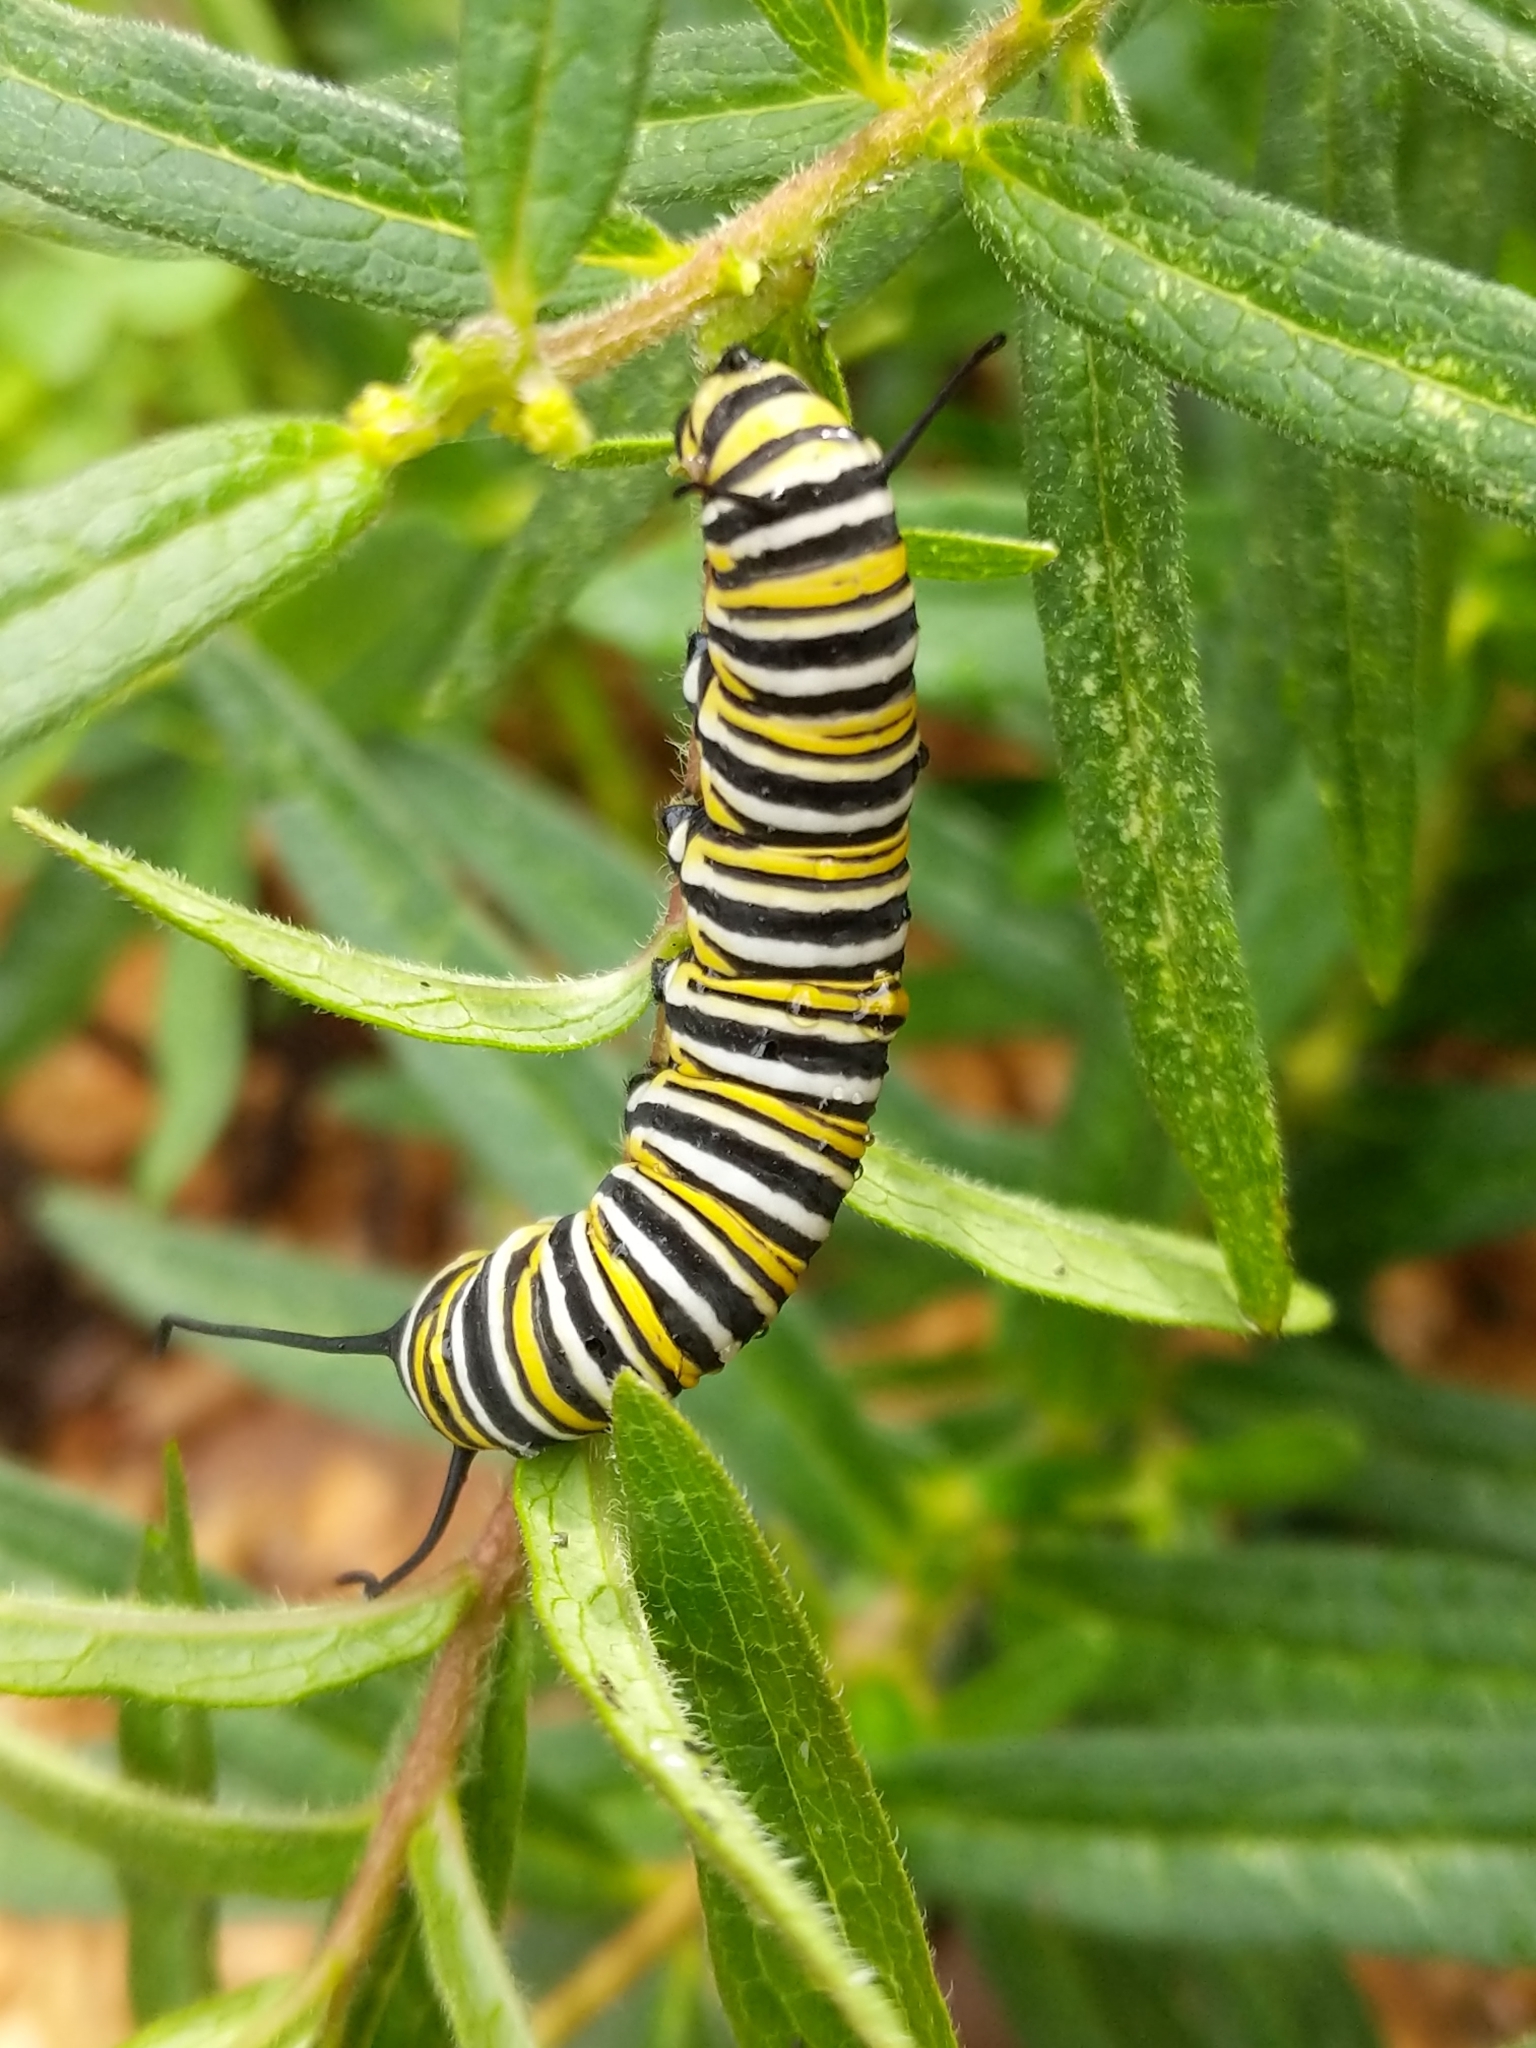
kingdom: Animalia
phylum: Arthropoda
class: Insecta
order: Lepidoptera
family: Nymphalidae
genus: Danaus
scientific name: Danaus plexippus
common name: Monarch
